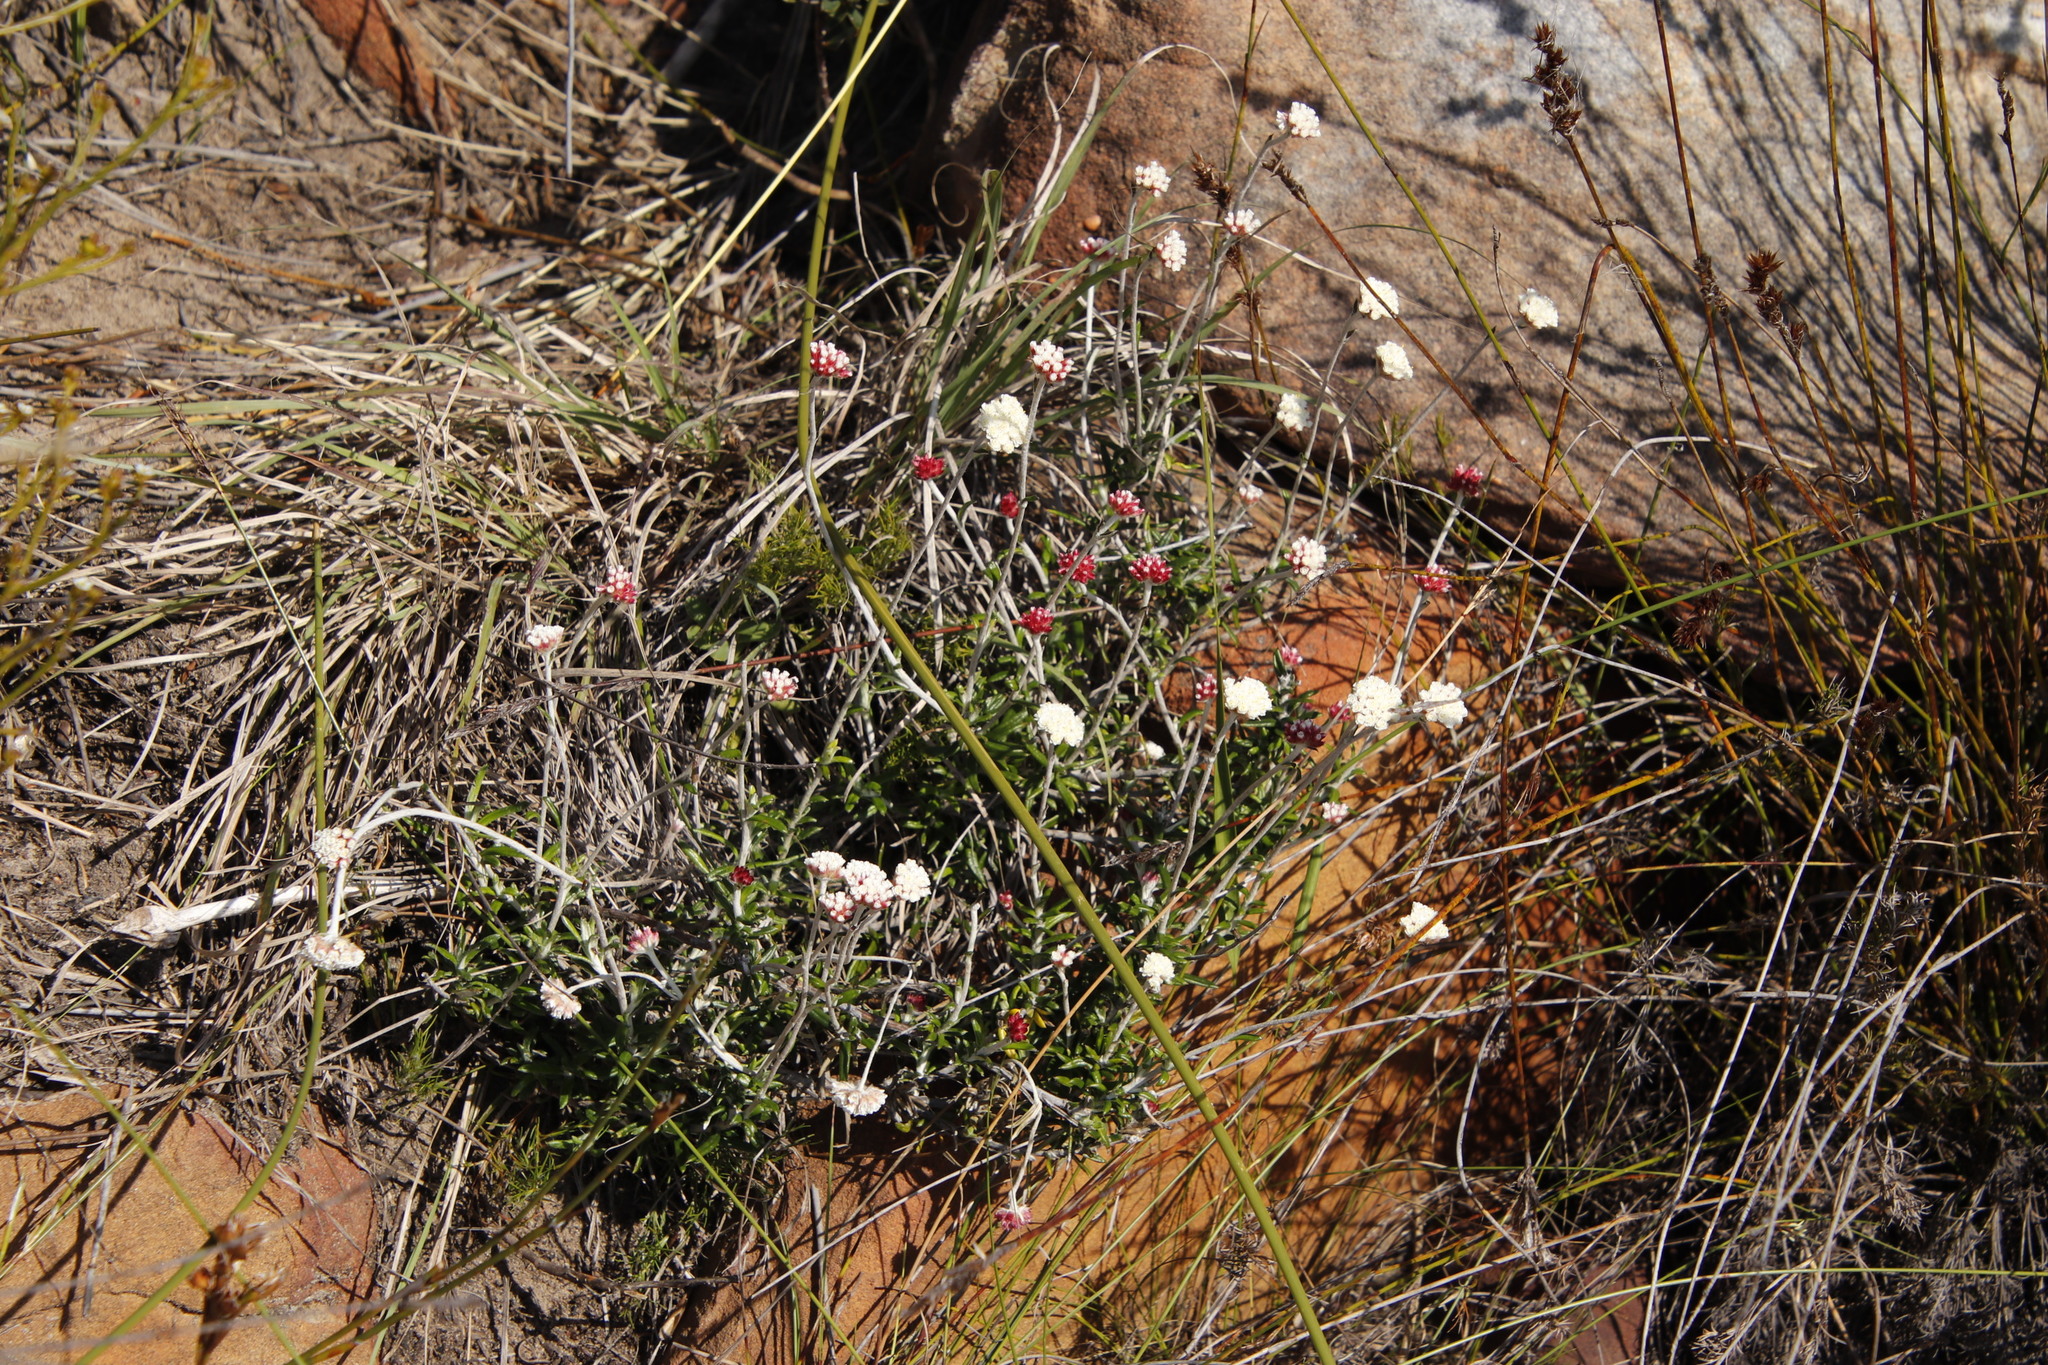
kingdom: Plantae
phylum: Tracheophyta
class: Magnoliopsida
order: Asterales
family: Asteraceae
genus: Anaxeton
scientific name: Anaxeton laeve
